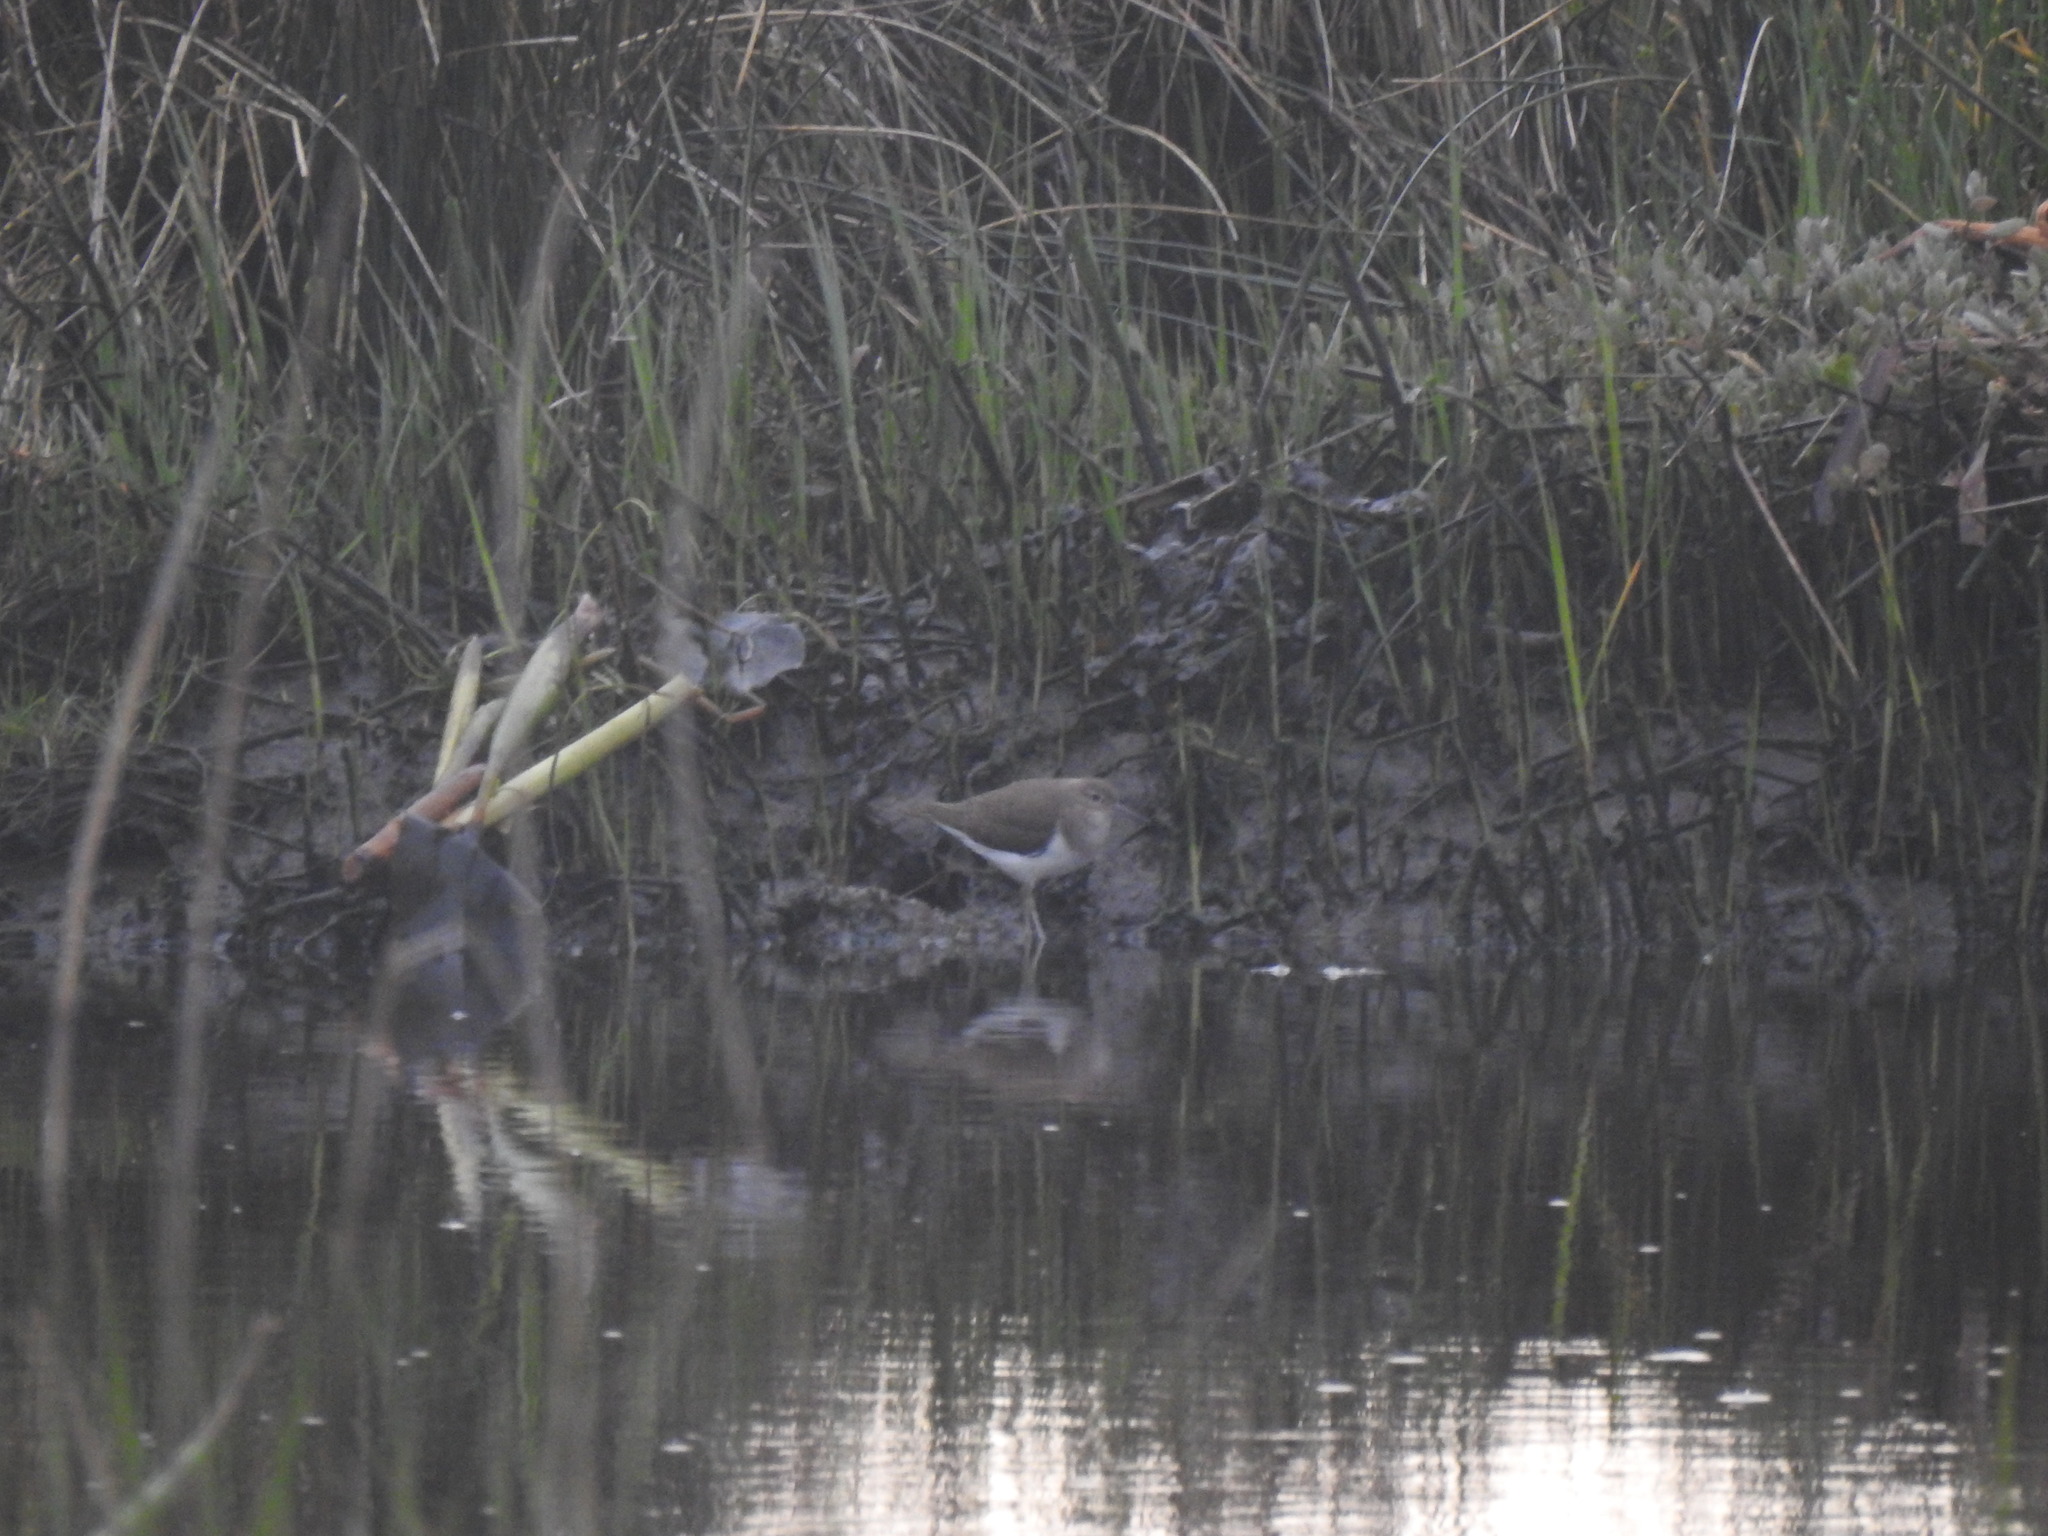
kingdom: Animalia
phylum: Chordata
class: Aves
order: Charadriiformes
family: Scolopacidae
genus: Actitis
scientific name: Actitis hypoleucos
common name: Common sandpiper
